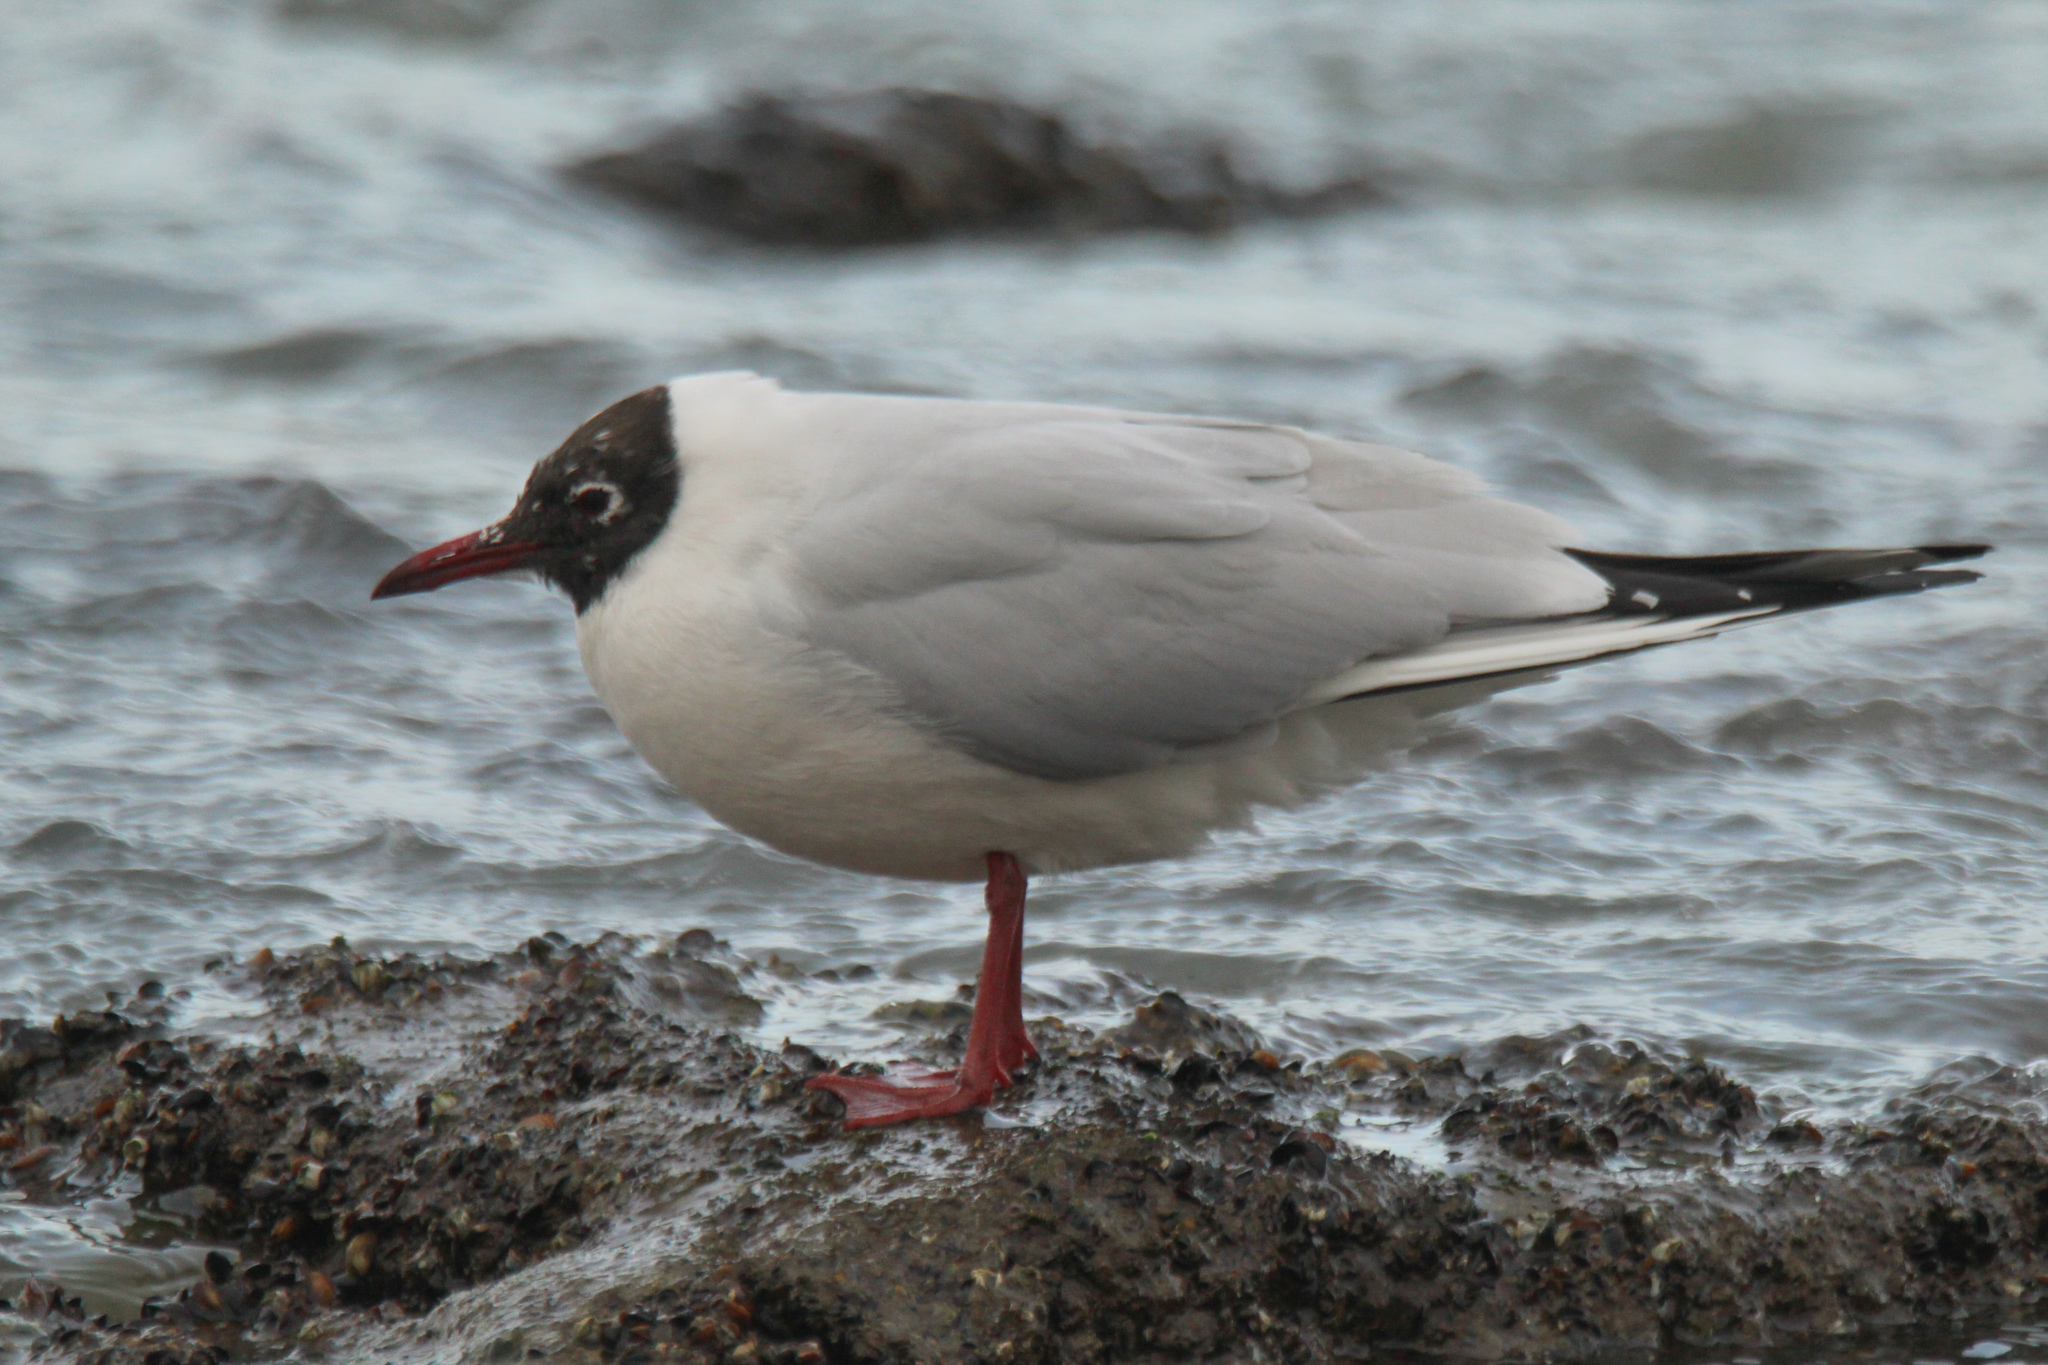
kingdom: Animalia
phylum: Chordata
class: Aves
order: Charadriiformes
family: Laridae
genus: Chroicocephalus
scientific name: Chroicocephalus ridibundus
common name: Black-headed gull
